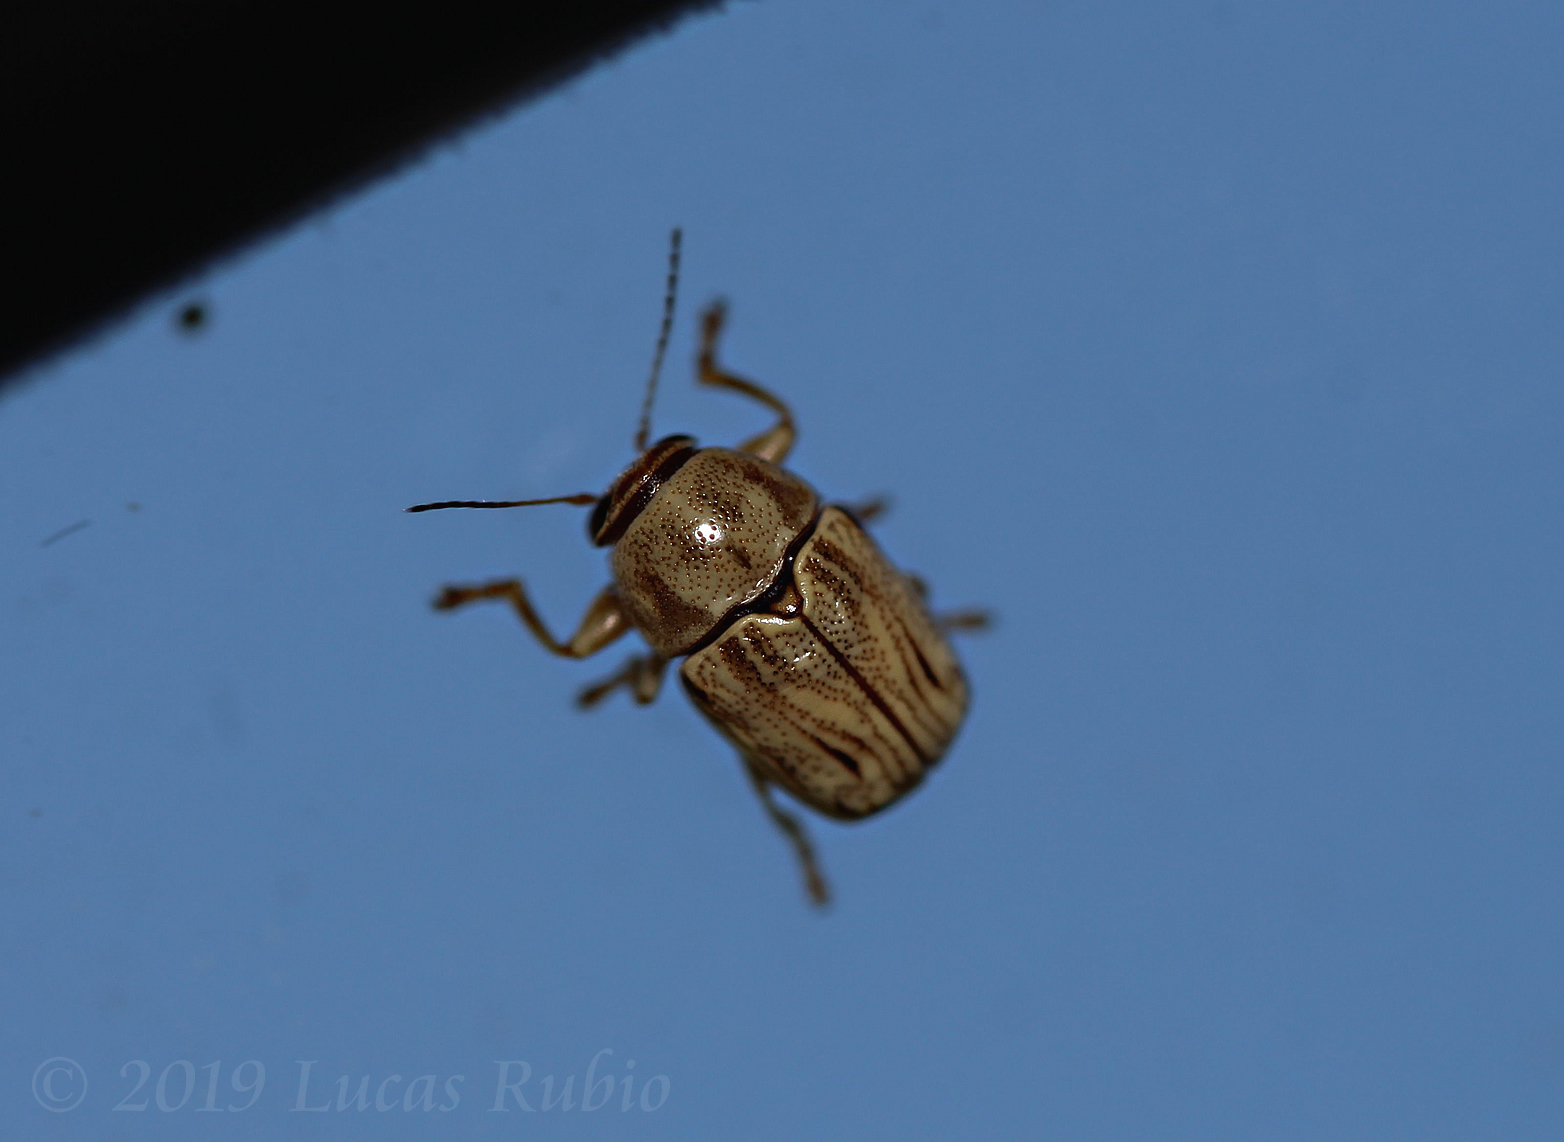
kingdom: Animalia
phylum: Arthropoda
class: Insecta
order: Coleoptera
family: Chrysomelidae
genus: Pachybrachis
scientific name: Pachybrachis
